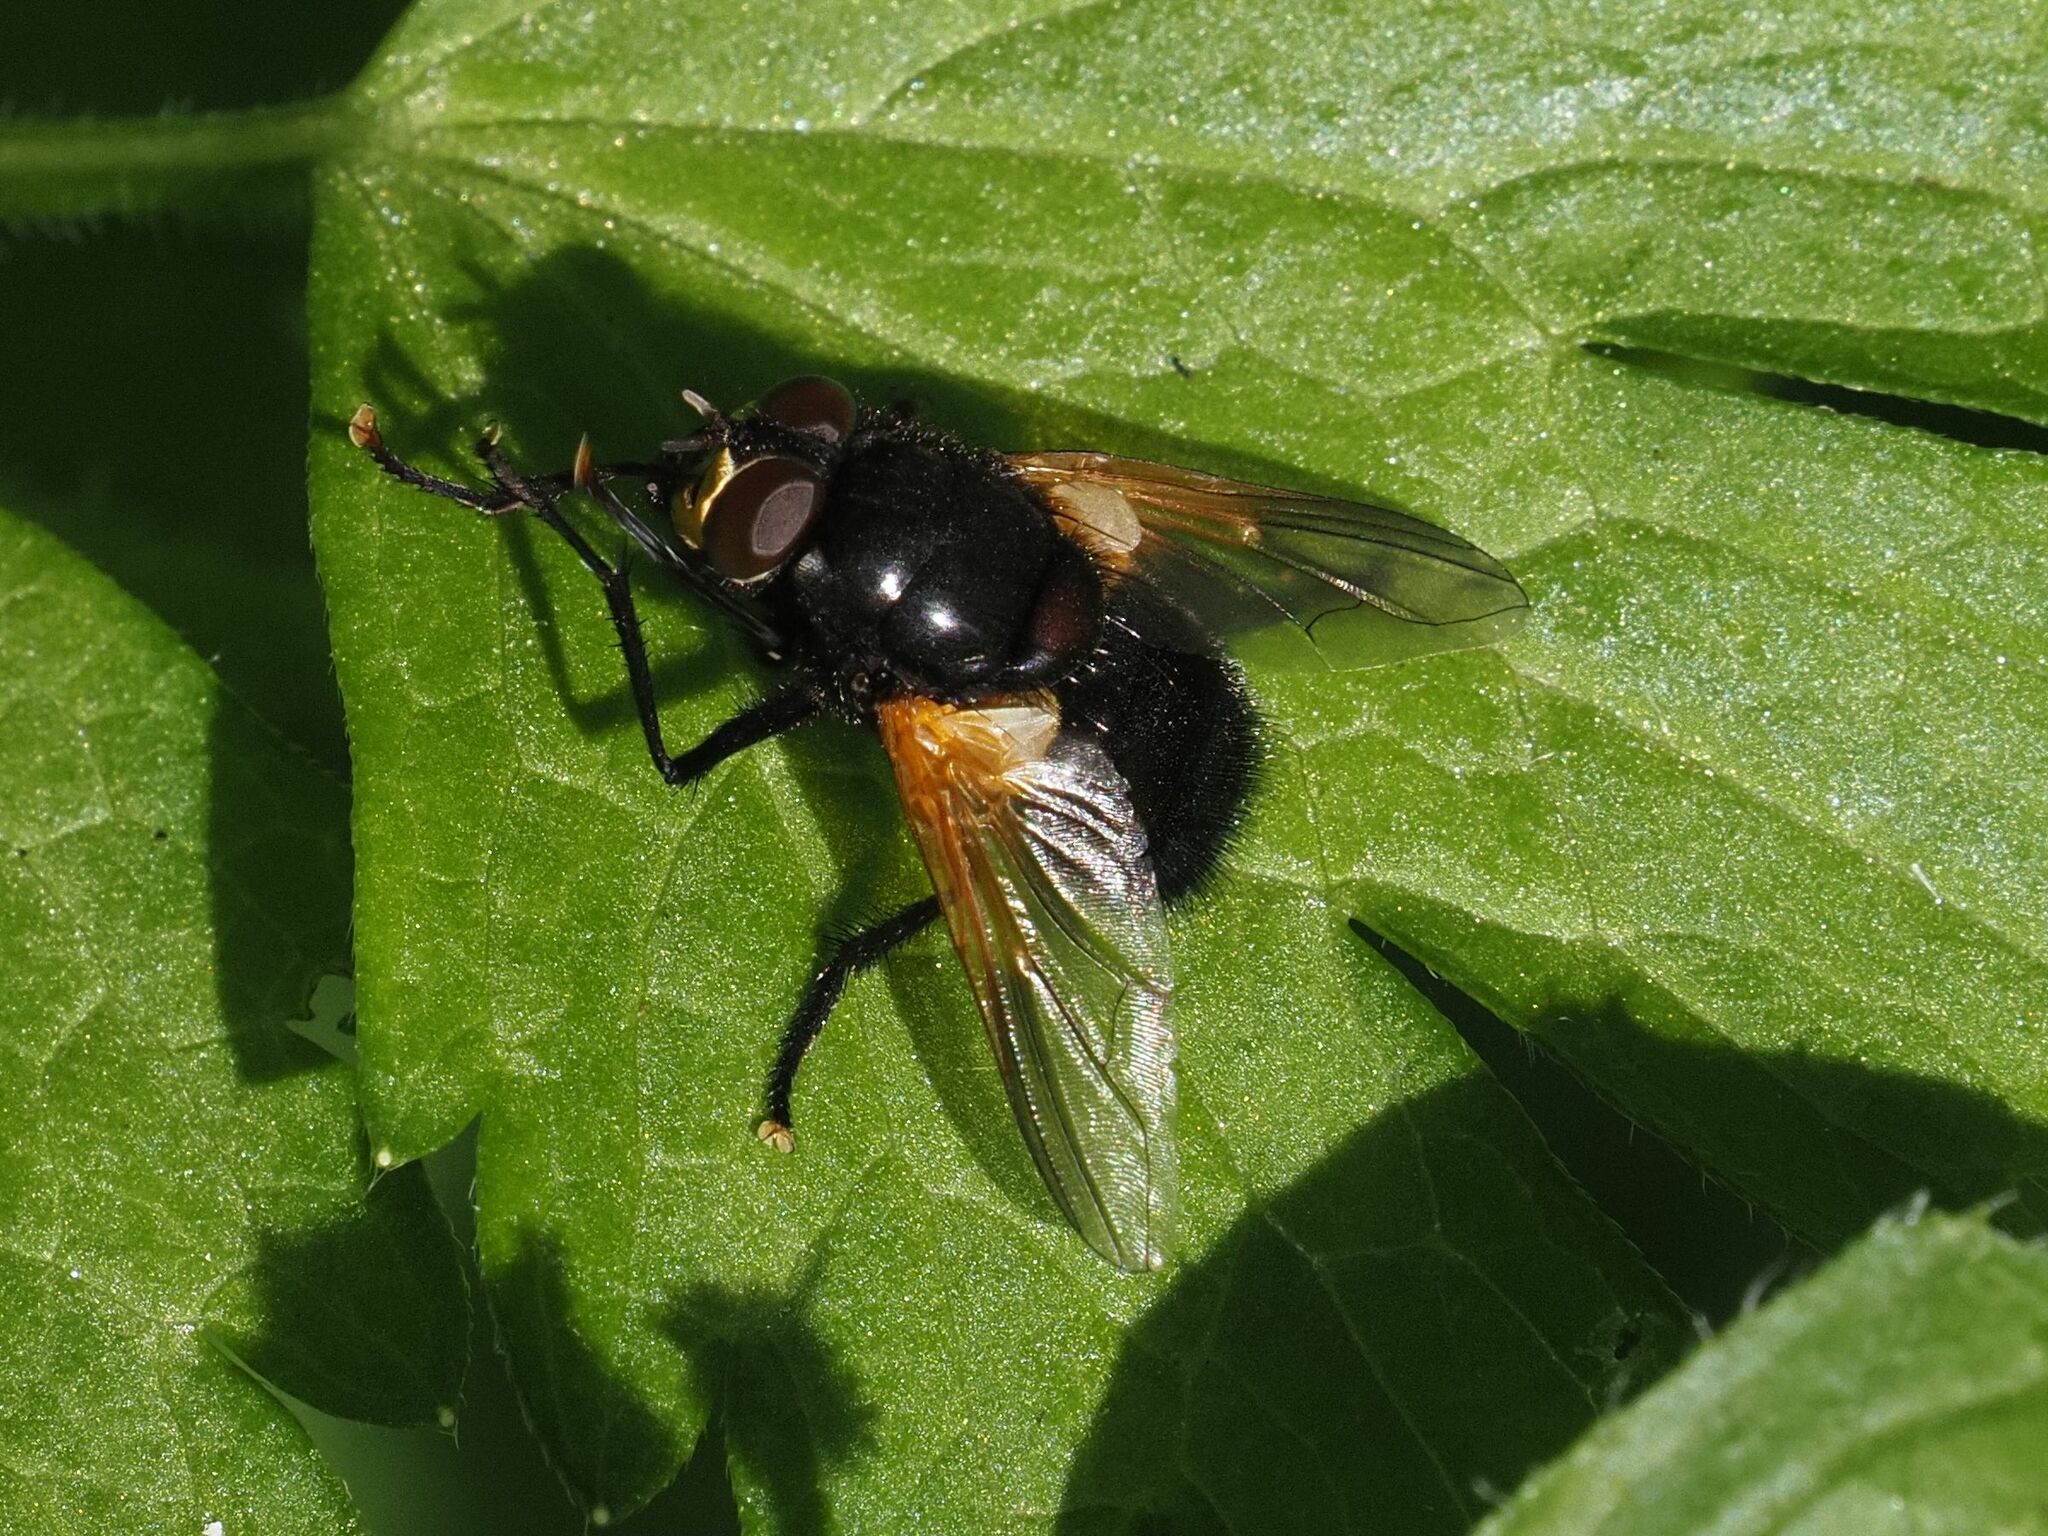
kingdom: Animalia
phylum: Arthropoda
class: Insecta
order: Diptera
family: Muscidae
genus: Mesembrina
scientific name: Mesembrina meridiana
